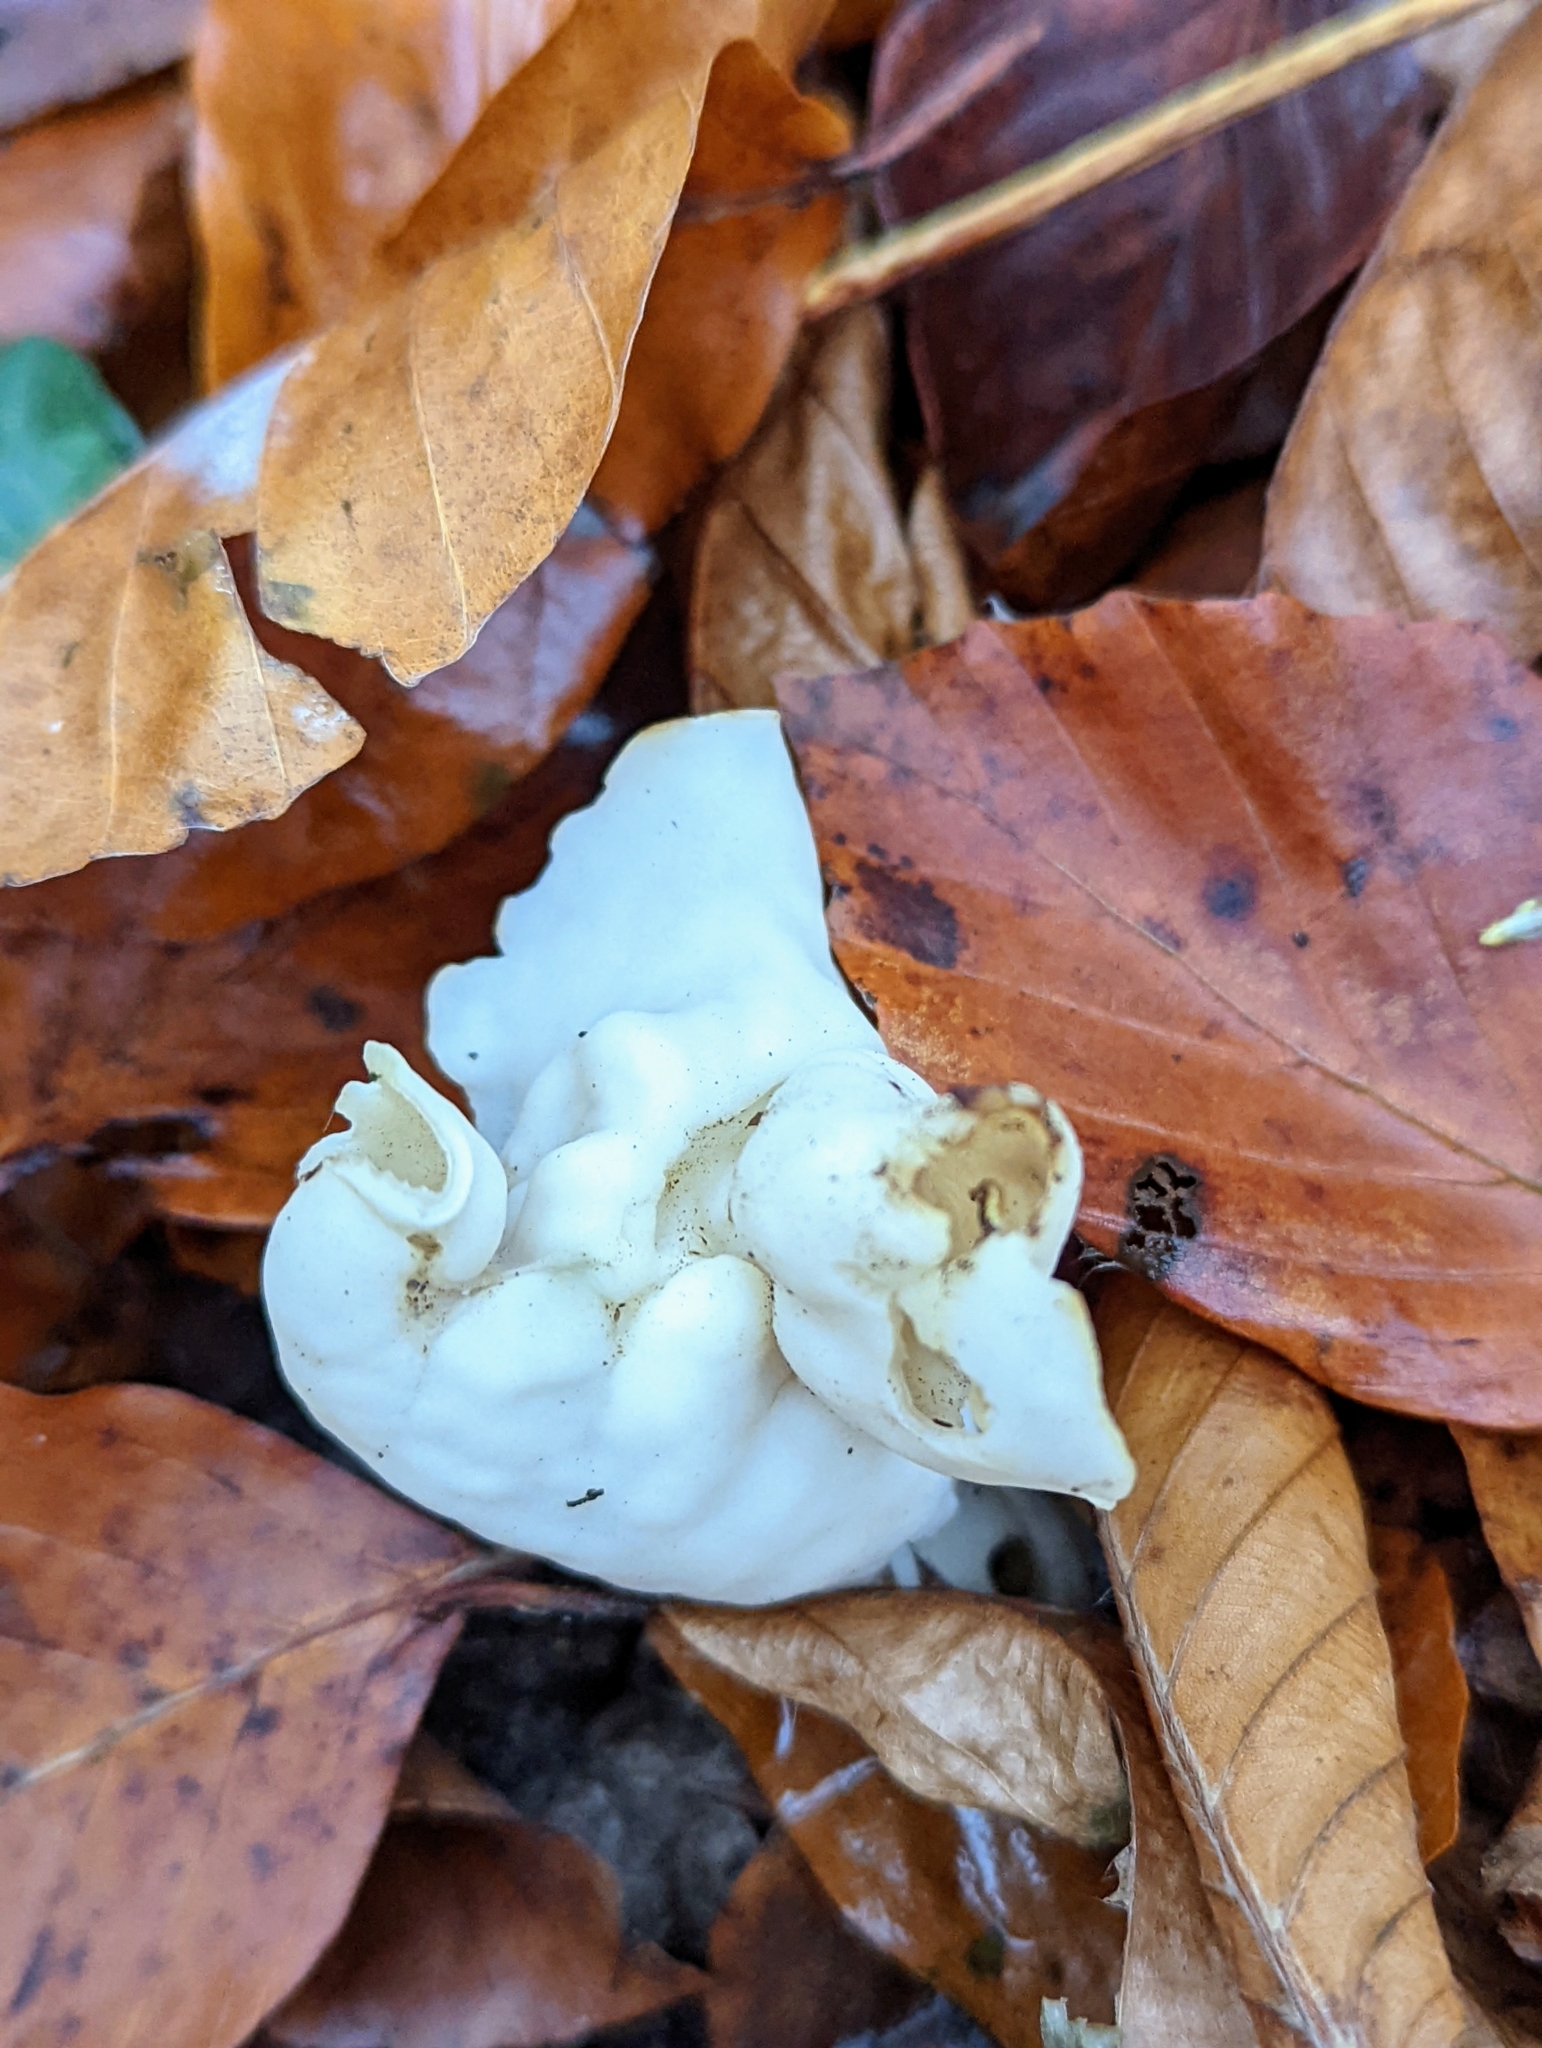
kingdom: Fungi
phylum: Ascomycota
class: Pezizomycetes
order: Pezizales
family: Helvellaceae
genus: Helvella
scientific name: Helvella crispa
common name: White saddle
